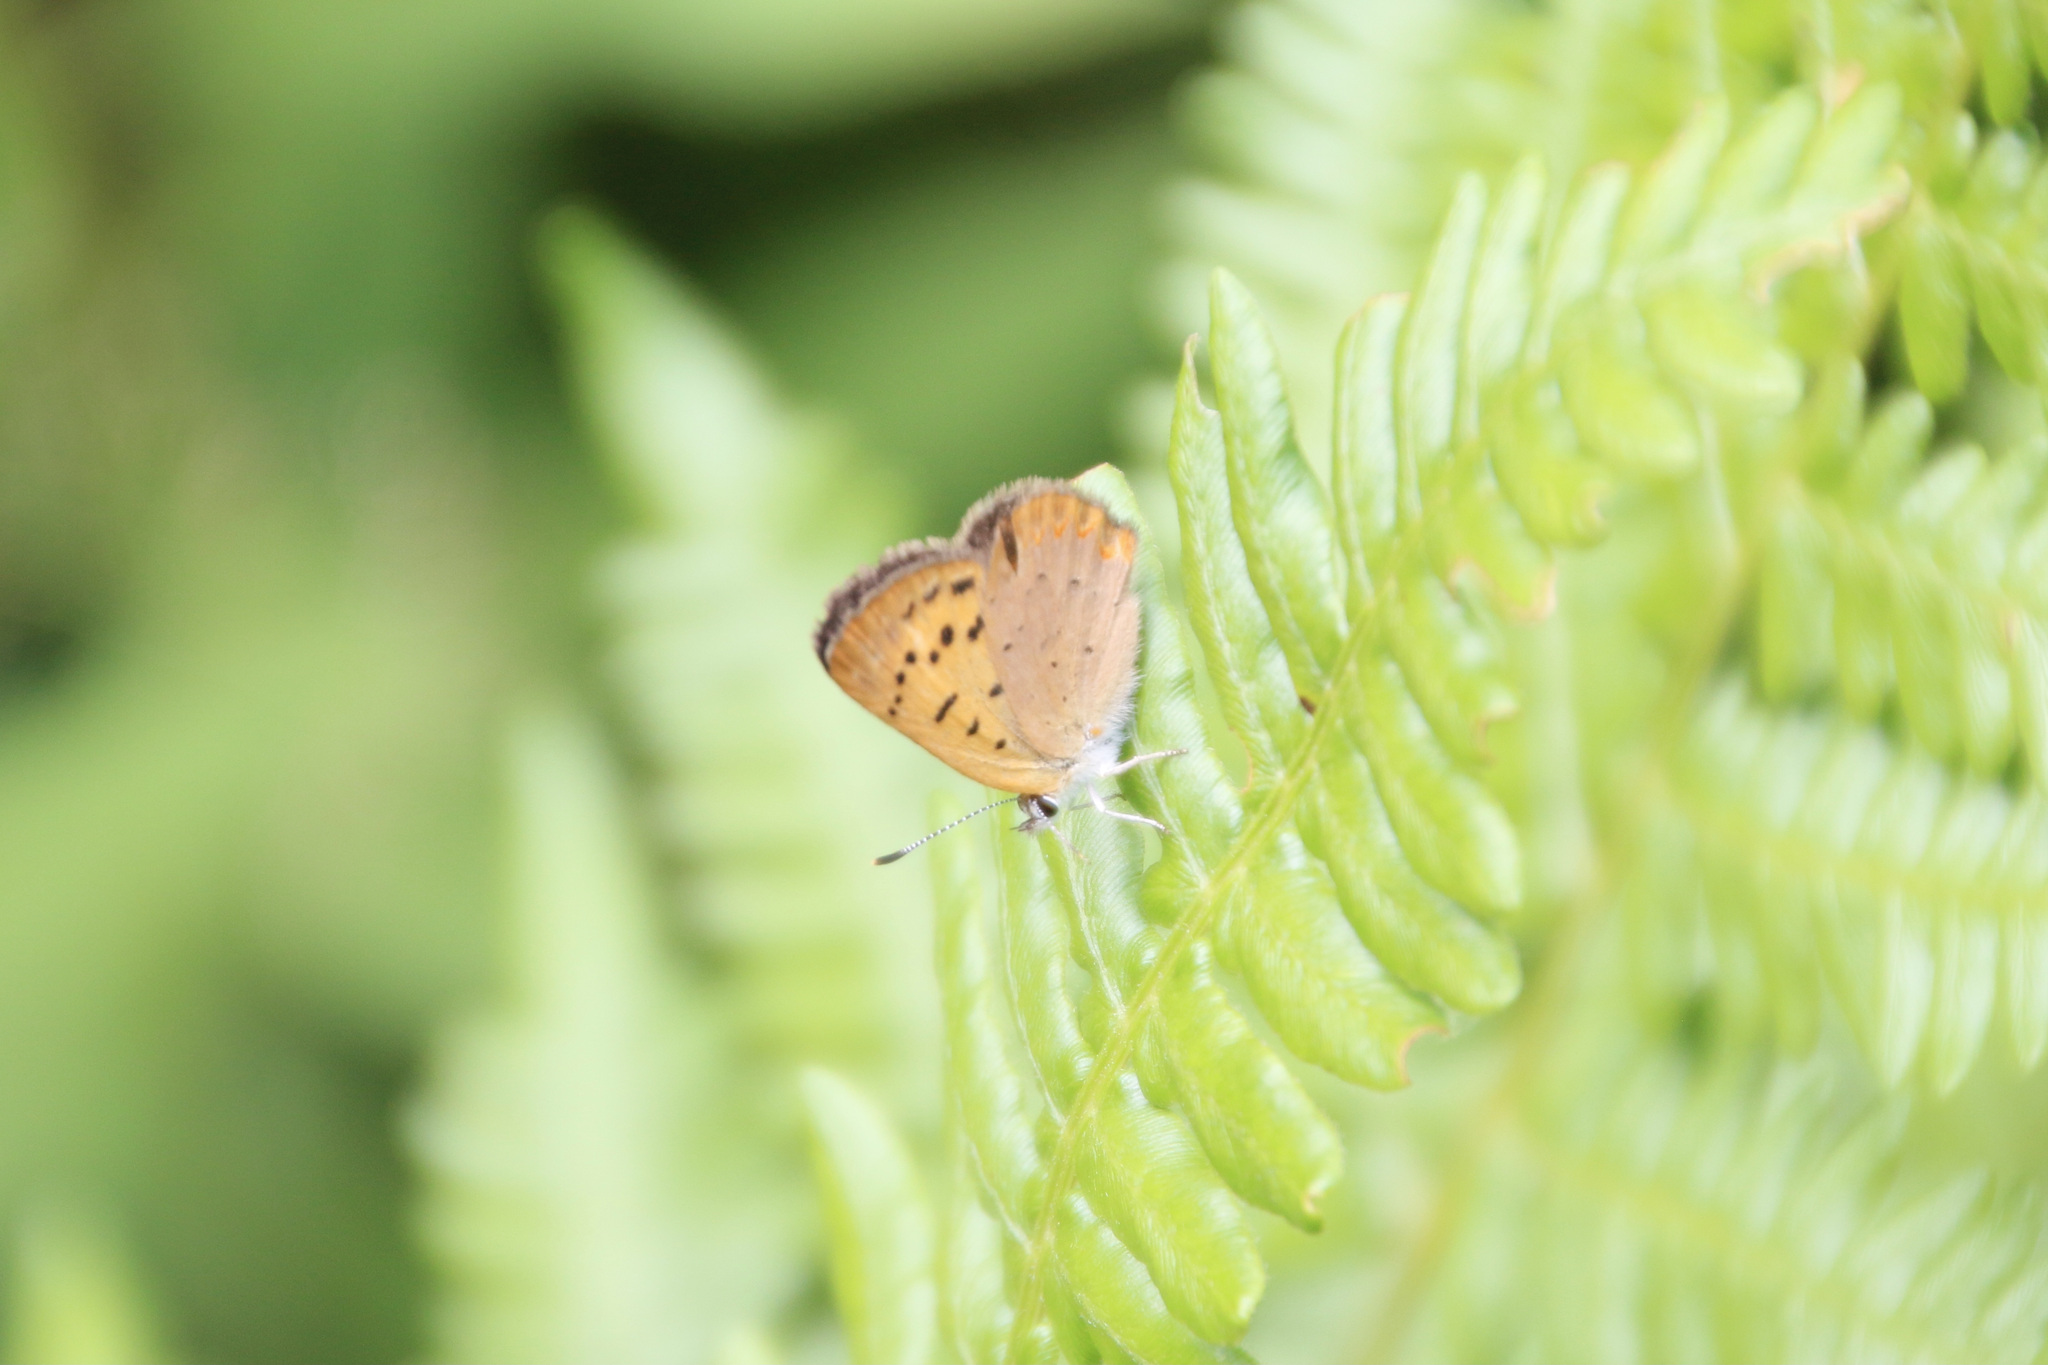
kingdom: Animalia
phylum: Arthropoda
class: Insecta
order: Lepidoptera
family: Lycaenidae
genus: Tharsalea
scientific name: Tharsalea dorcas
